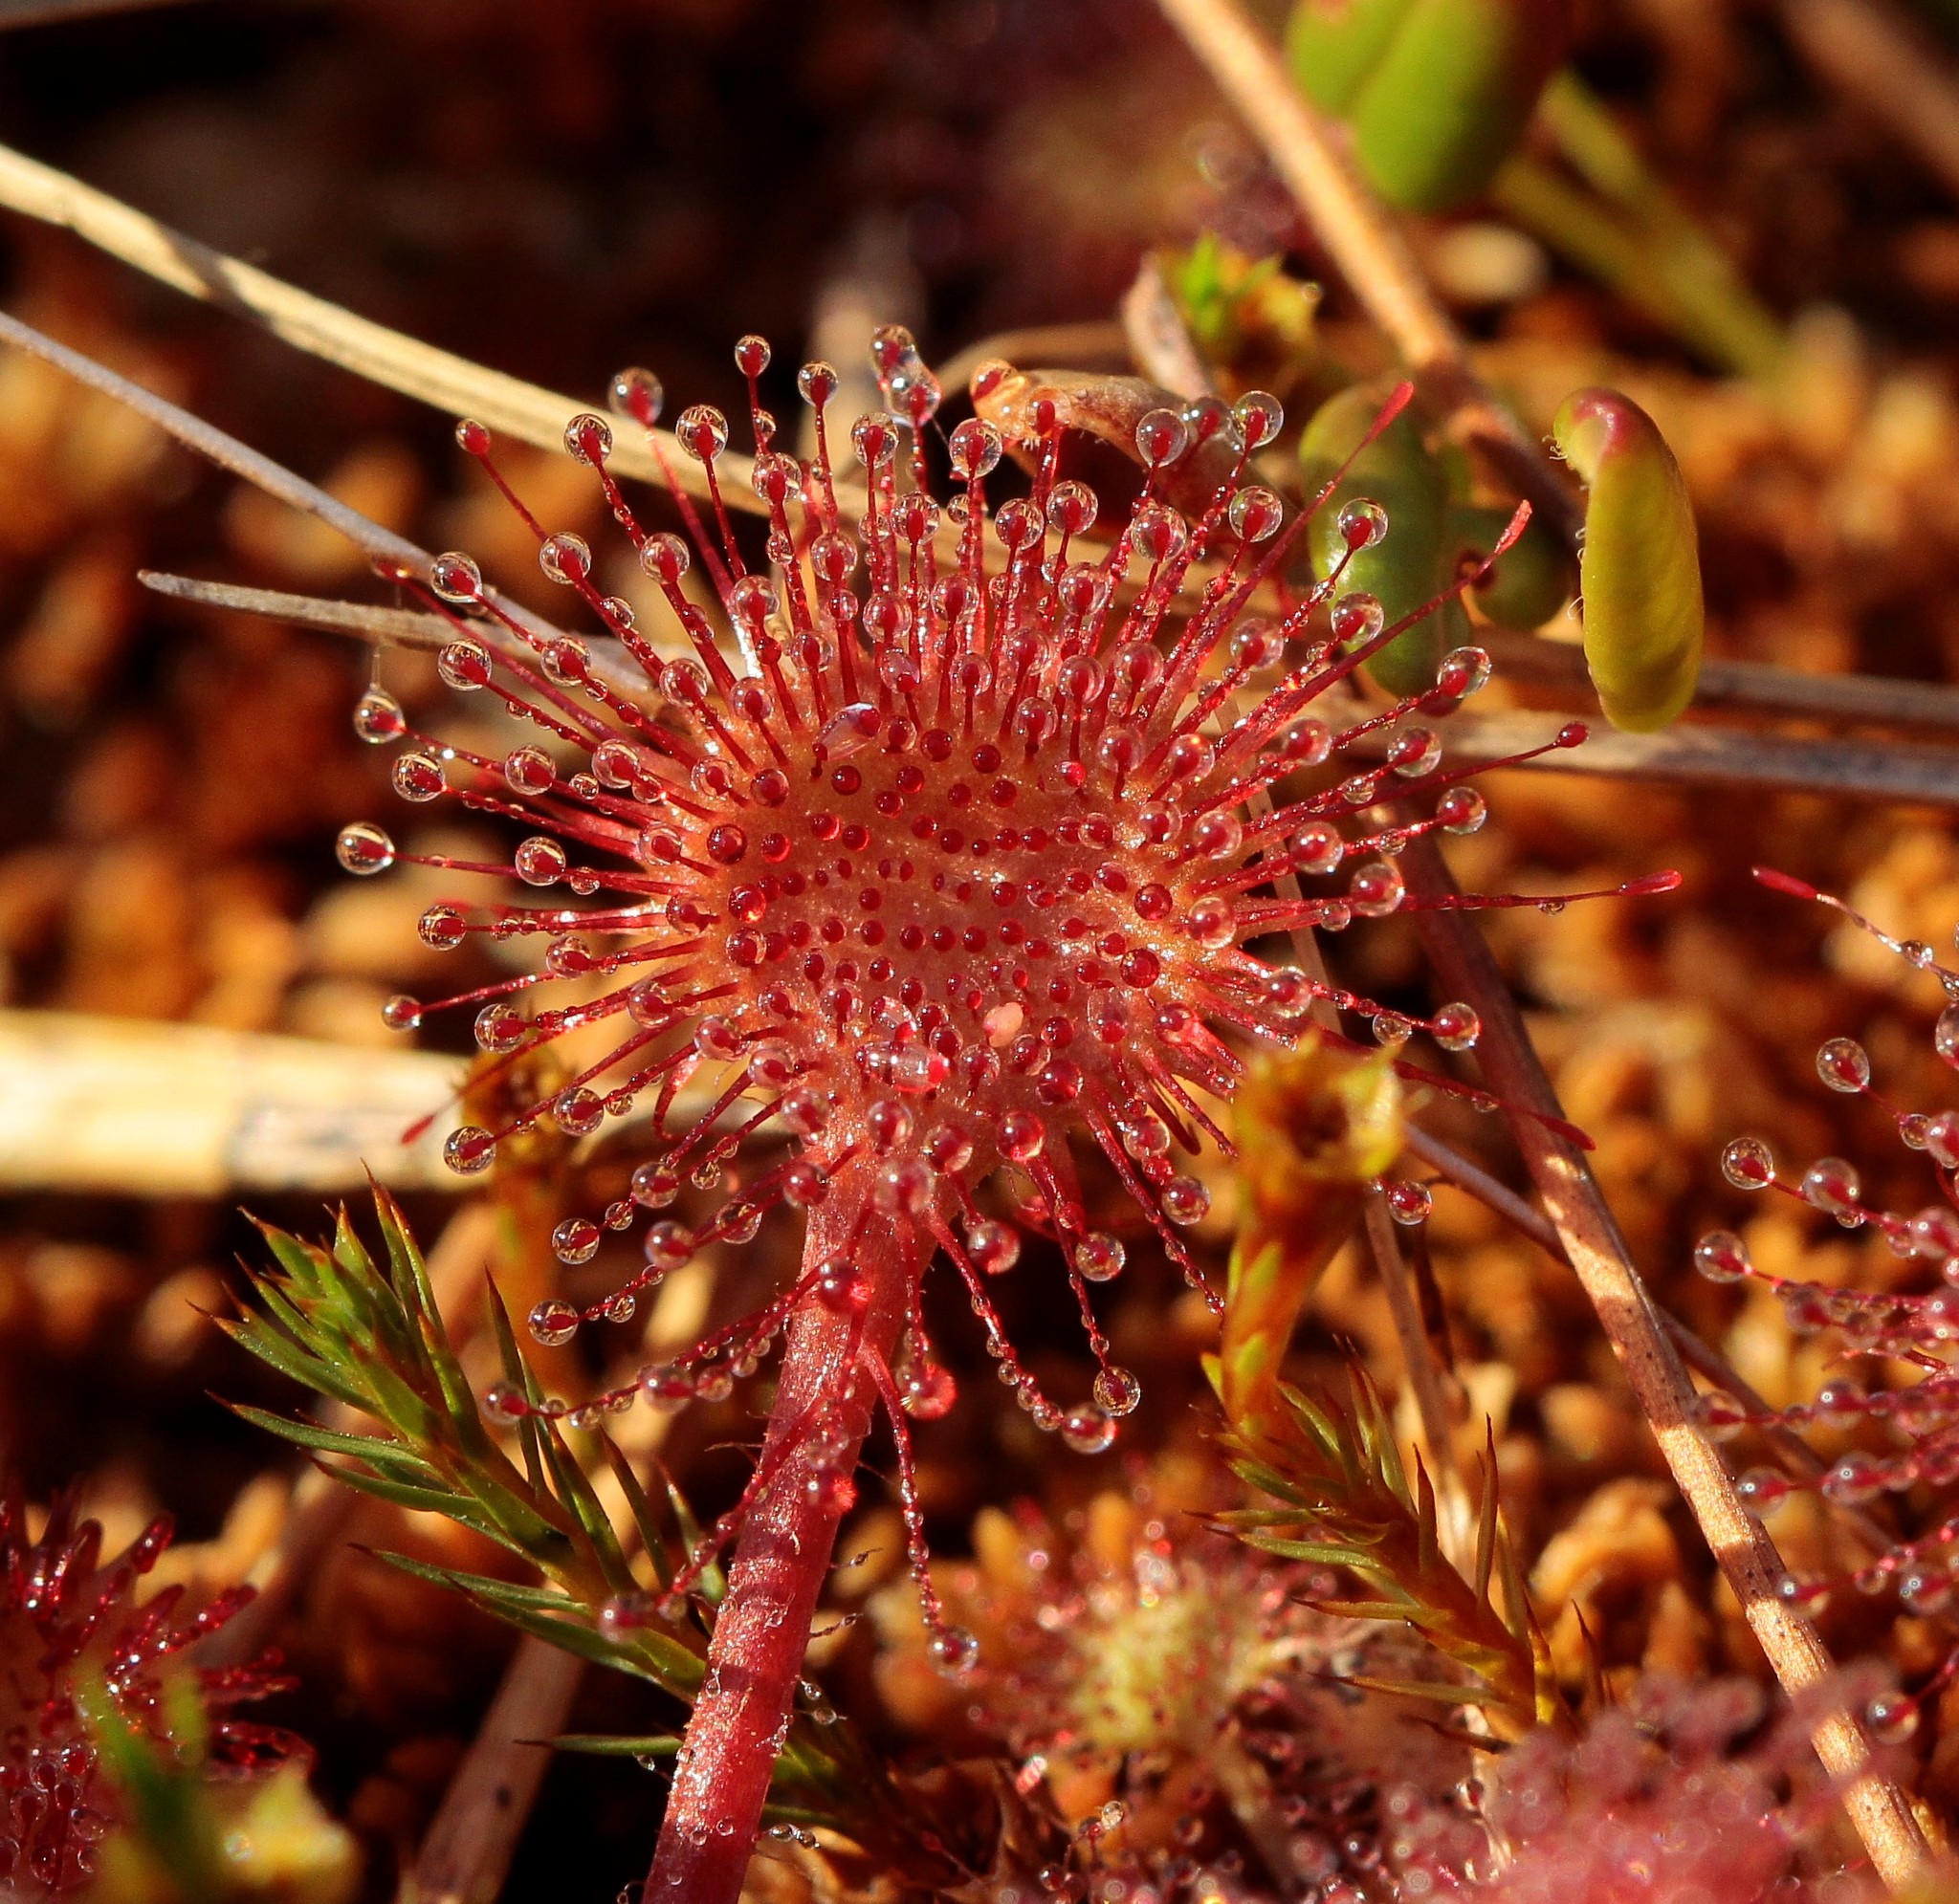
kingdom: Plantae
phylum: Tracheophyta
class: Magnoliopsida
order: Caryophyllales
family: Droseraceae
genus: Drosera
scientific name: Drosera rotundifolia
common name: Round-leaved sundew
